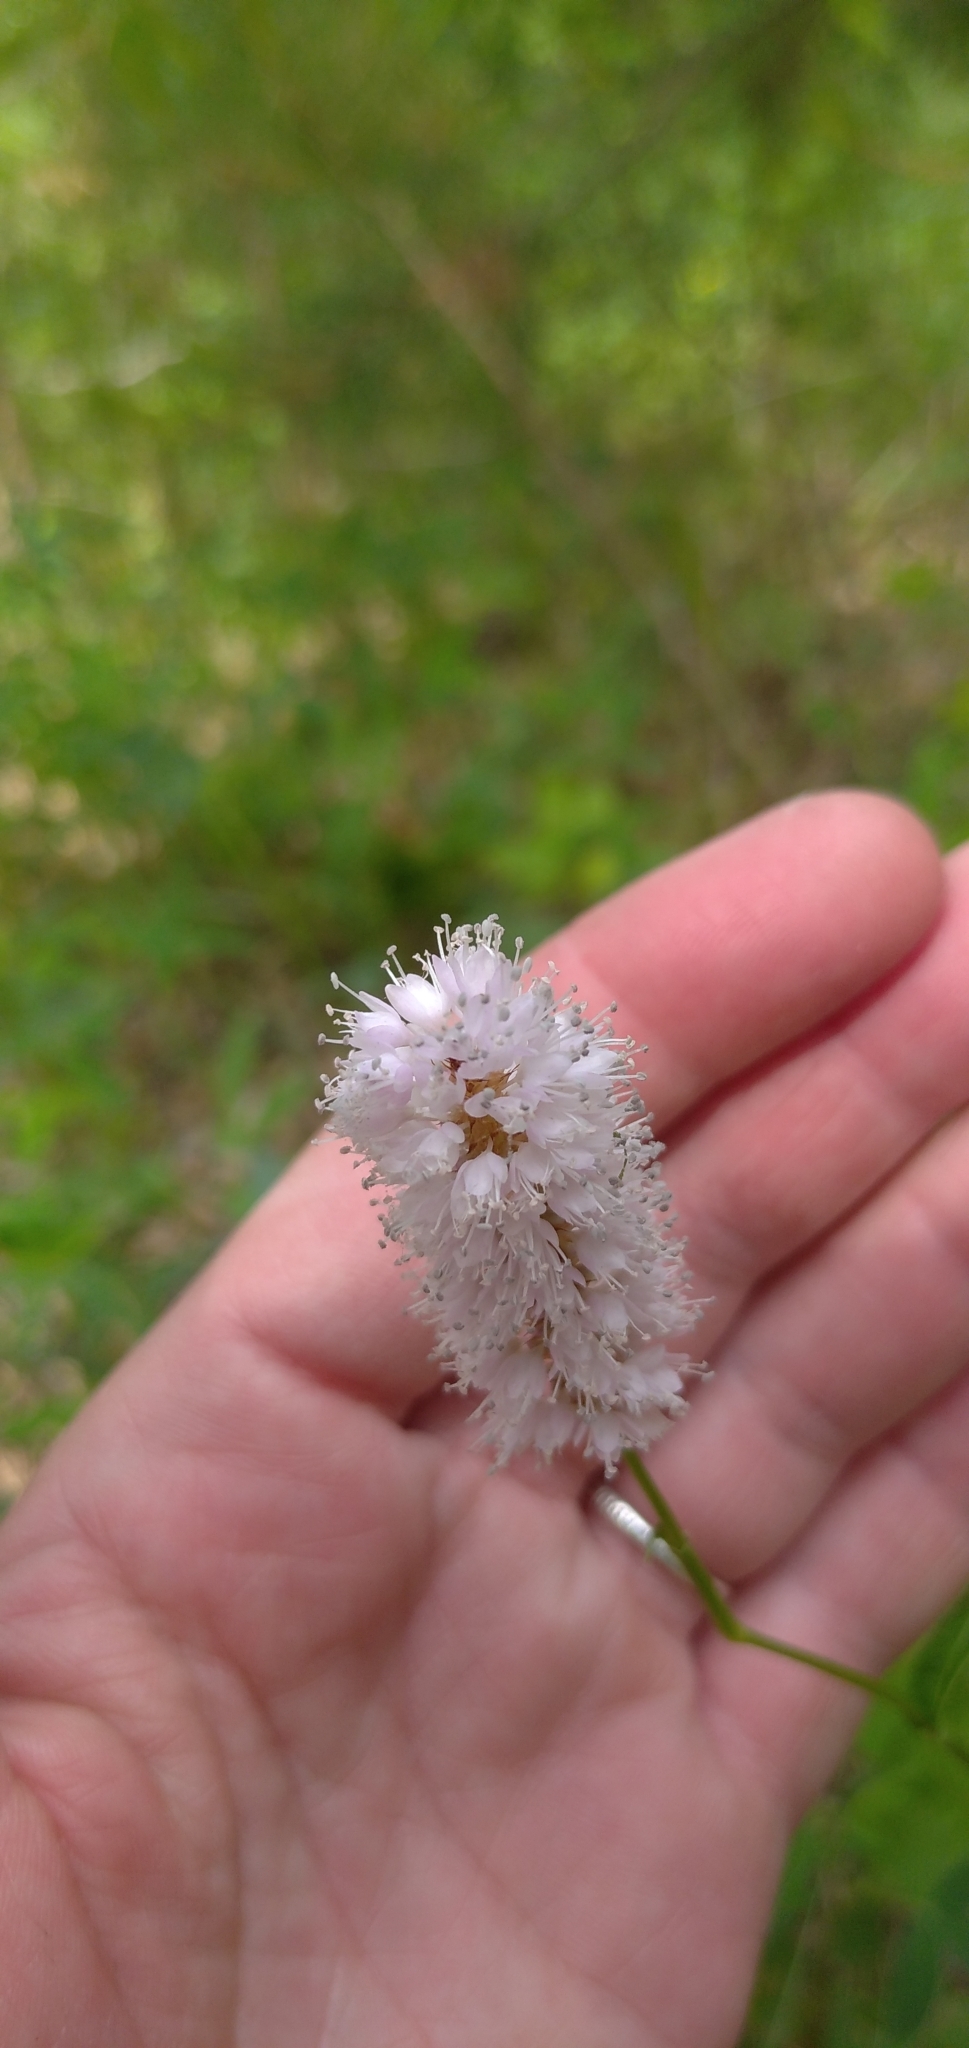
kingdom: Plantae
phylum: Tracheophyta
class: Magnoliopsida
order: Caryophyllales
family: Polygonaceae
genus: Bistorta
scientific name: Bistorta officinalis
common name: Common bistort
